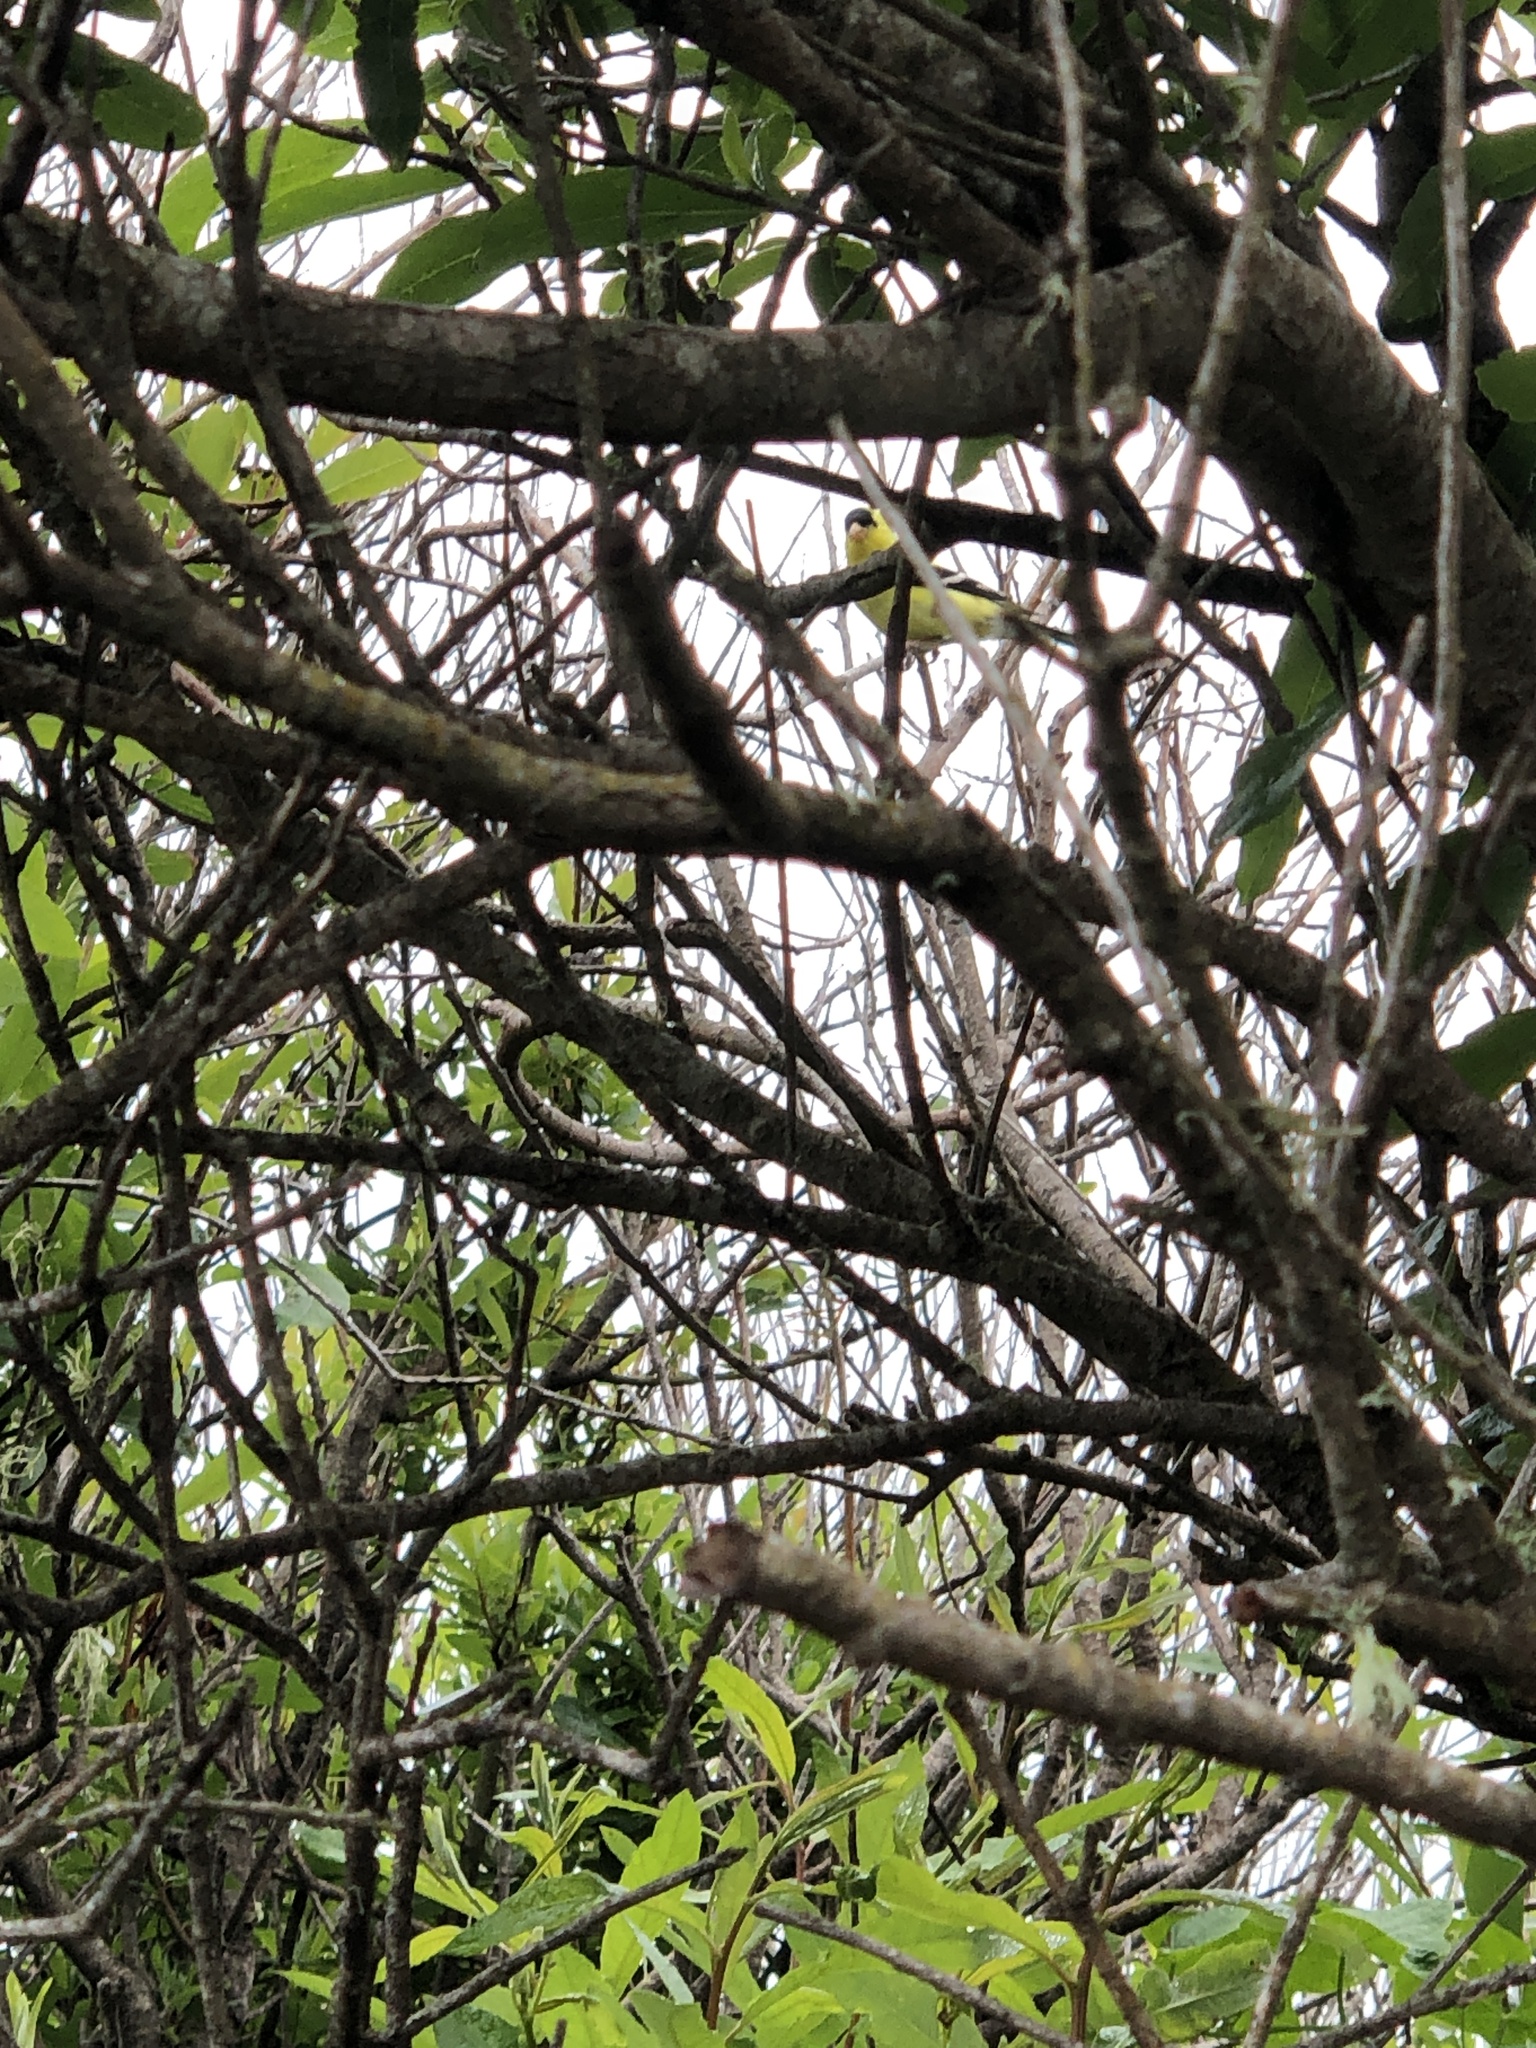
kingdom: Animalia
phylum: Chordata
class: Aves
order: Passeriformes
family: Fringillidae
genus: Spinus
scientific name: Spinus tristis
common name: American goldfinch
